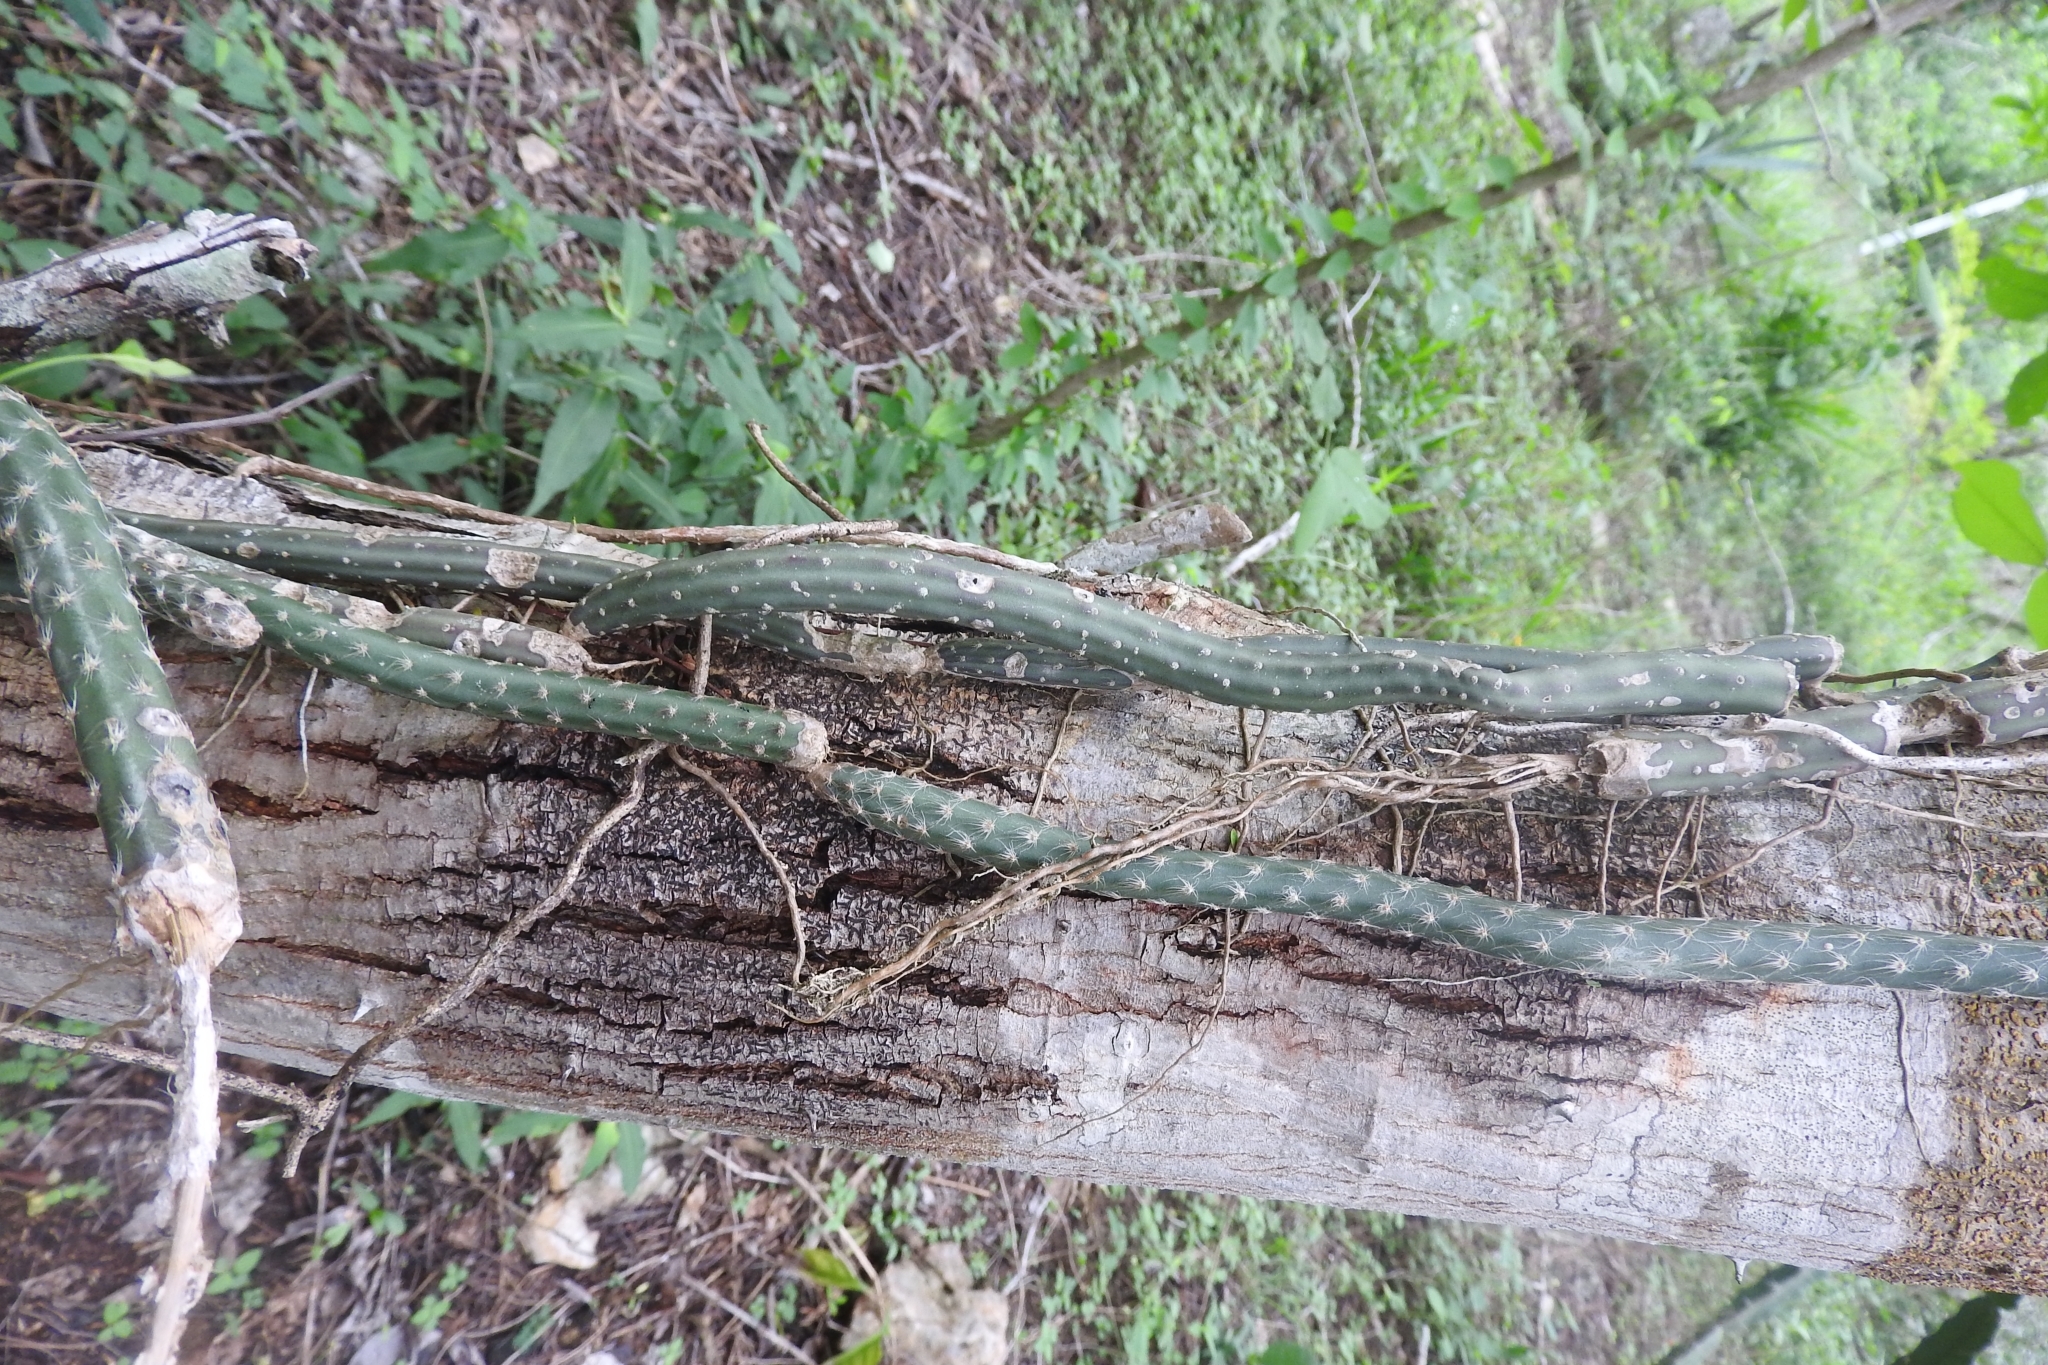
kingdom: Plantae
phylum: Tracheophyta
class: Magnoliopsida
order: Caryophyllales
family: Cactaceae
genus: Selenicereus
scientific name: Selenicereus grandiflorus
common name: Queen of the night
